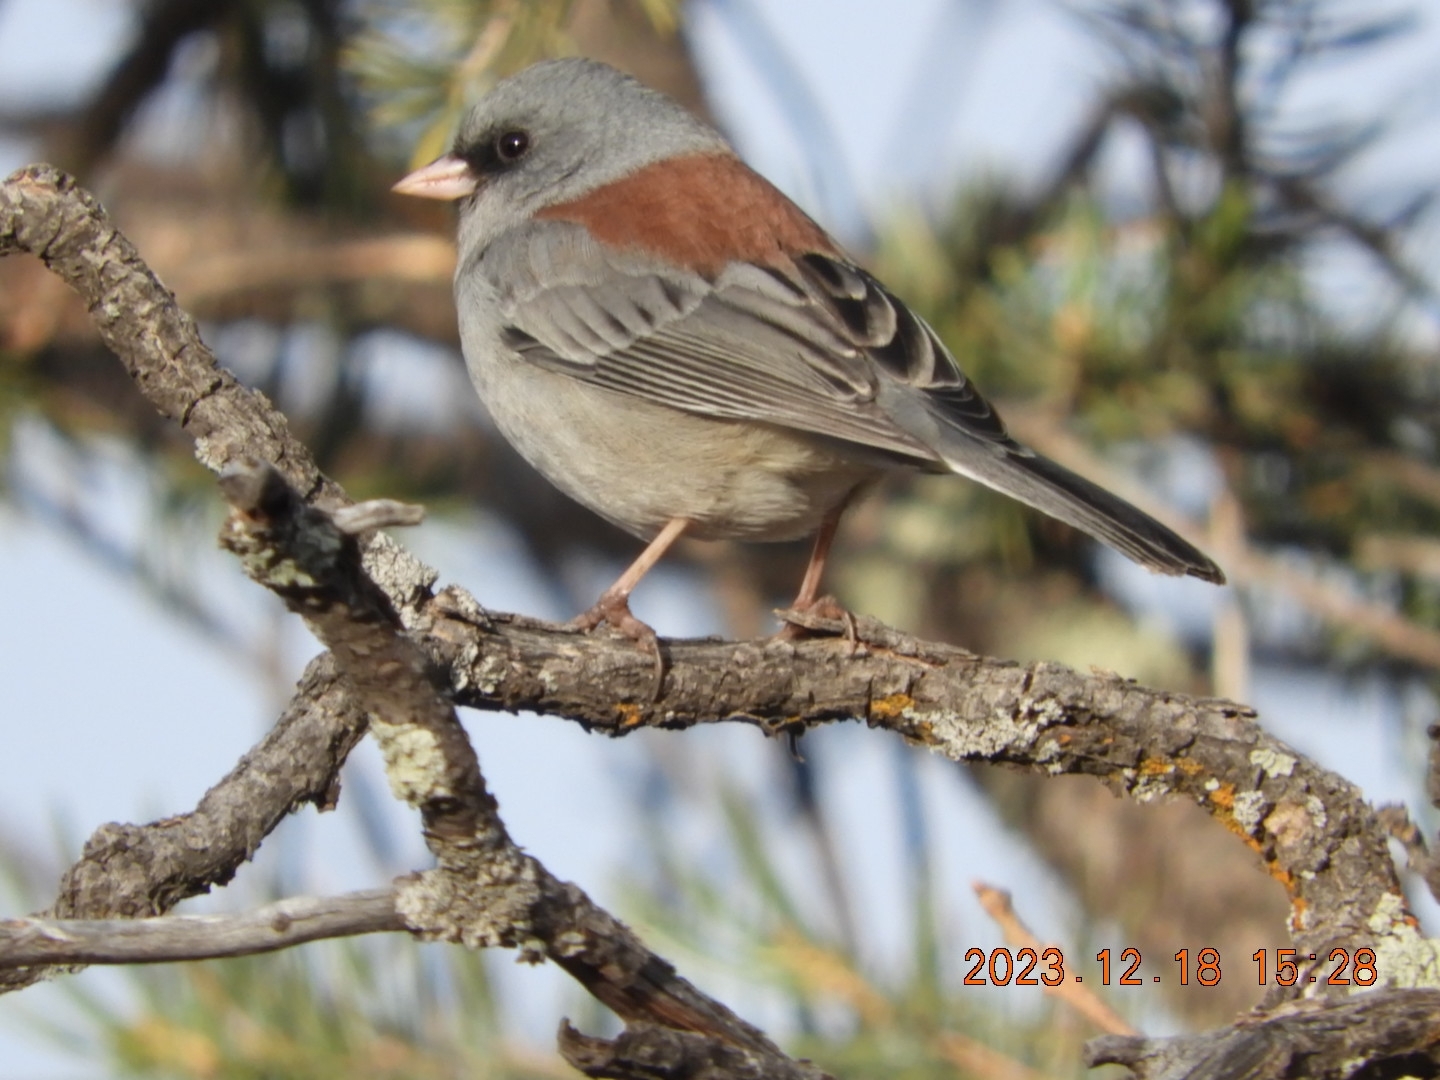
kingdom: Animalia
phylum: Chordata
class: Aves
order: Passeriformes
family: Passerellidae
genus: Junco
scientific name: Junco hyemalis
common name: Dark-eyed junco
